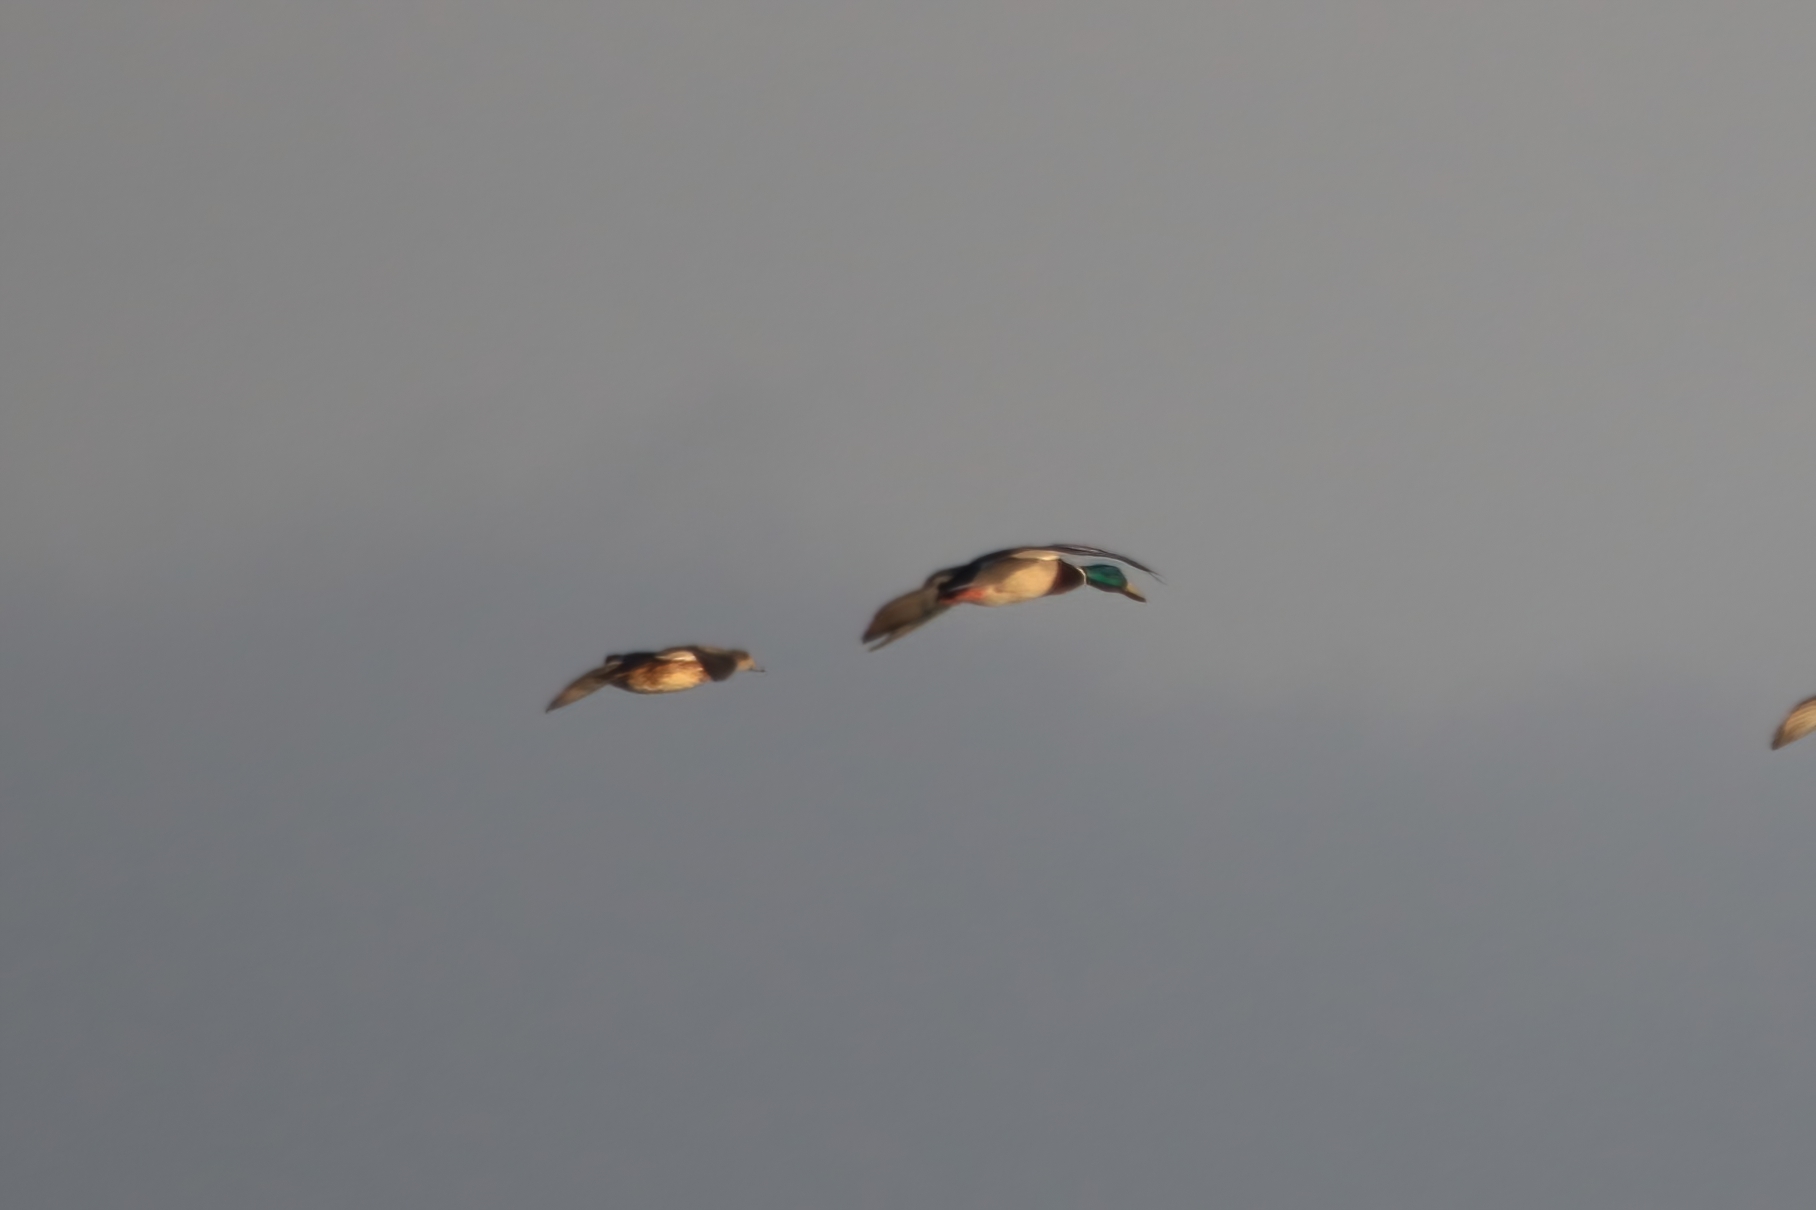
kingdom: Animalia
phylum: Chordata
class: Aves
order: Anseriformes
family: Anatidae
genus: Anas
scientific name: Anas platyrhynchos
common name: Mallard
